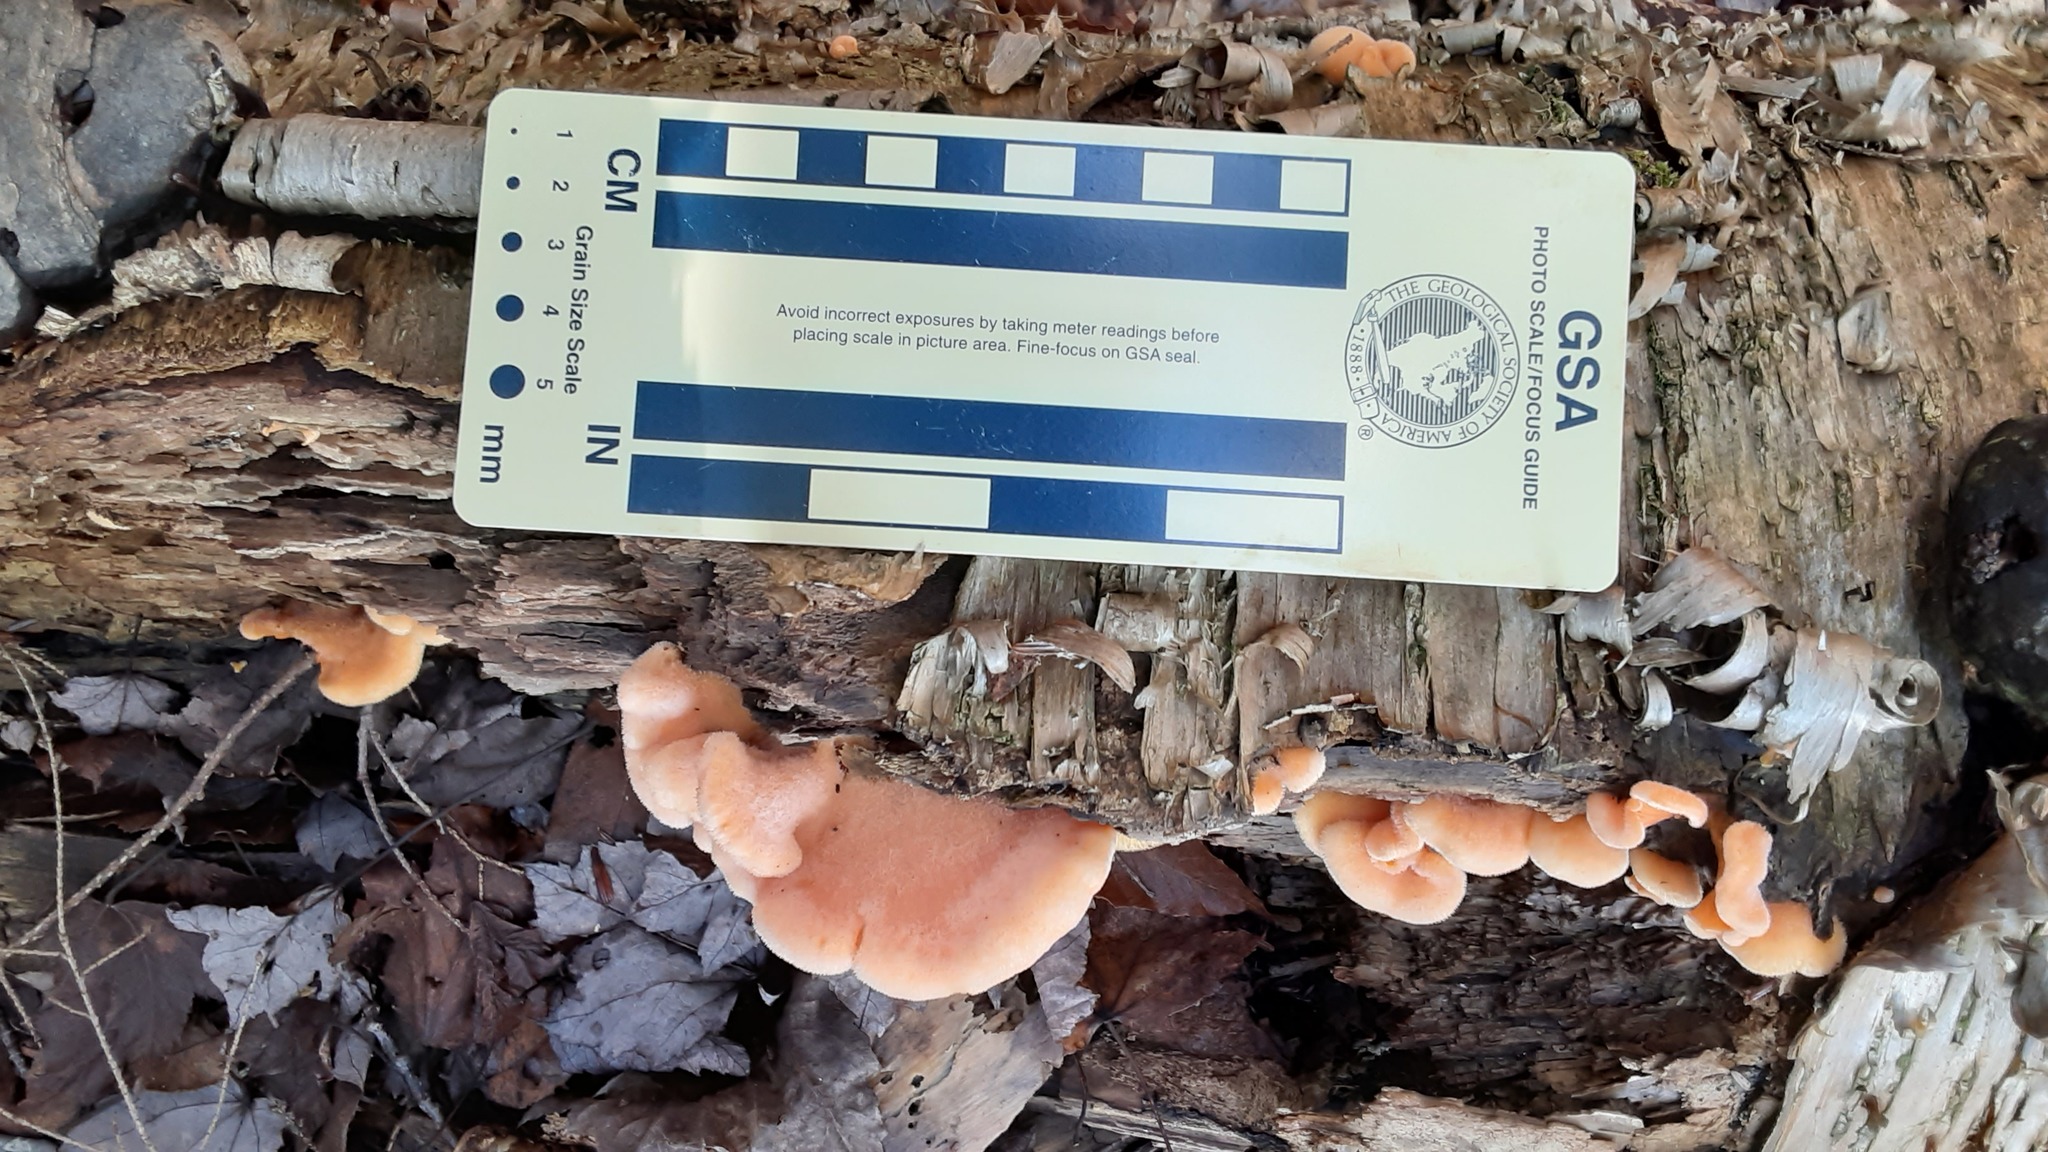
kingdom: Fungi
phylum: Basidiomycota
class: Agaricomycetes
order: Agaricales
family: Phyllotopsidaceae
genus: Phyllotopsis
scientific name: Phyllotopsis nidulans
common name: Orange mock oyster
